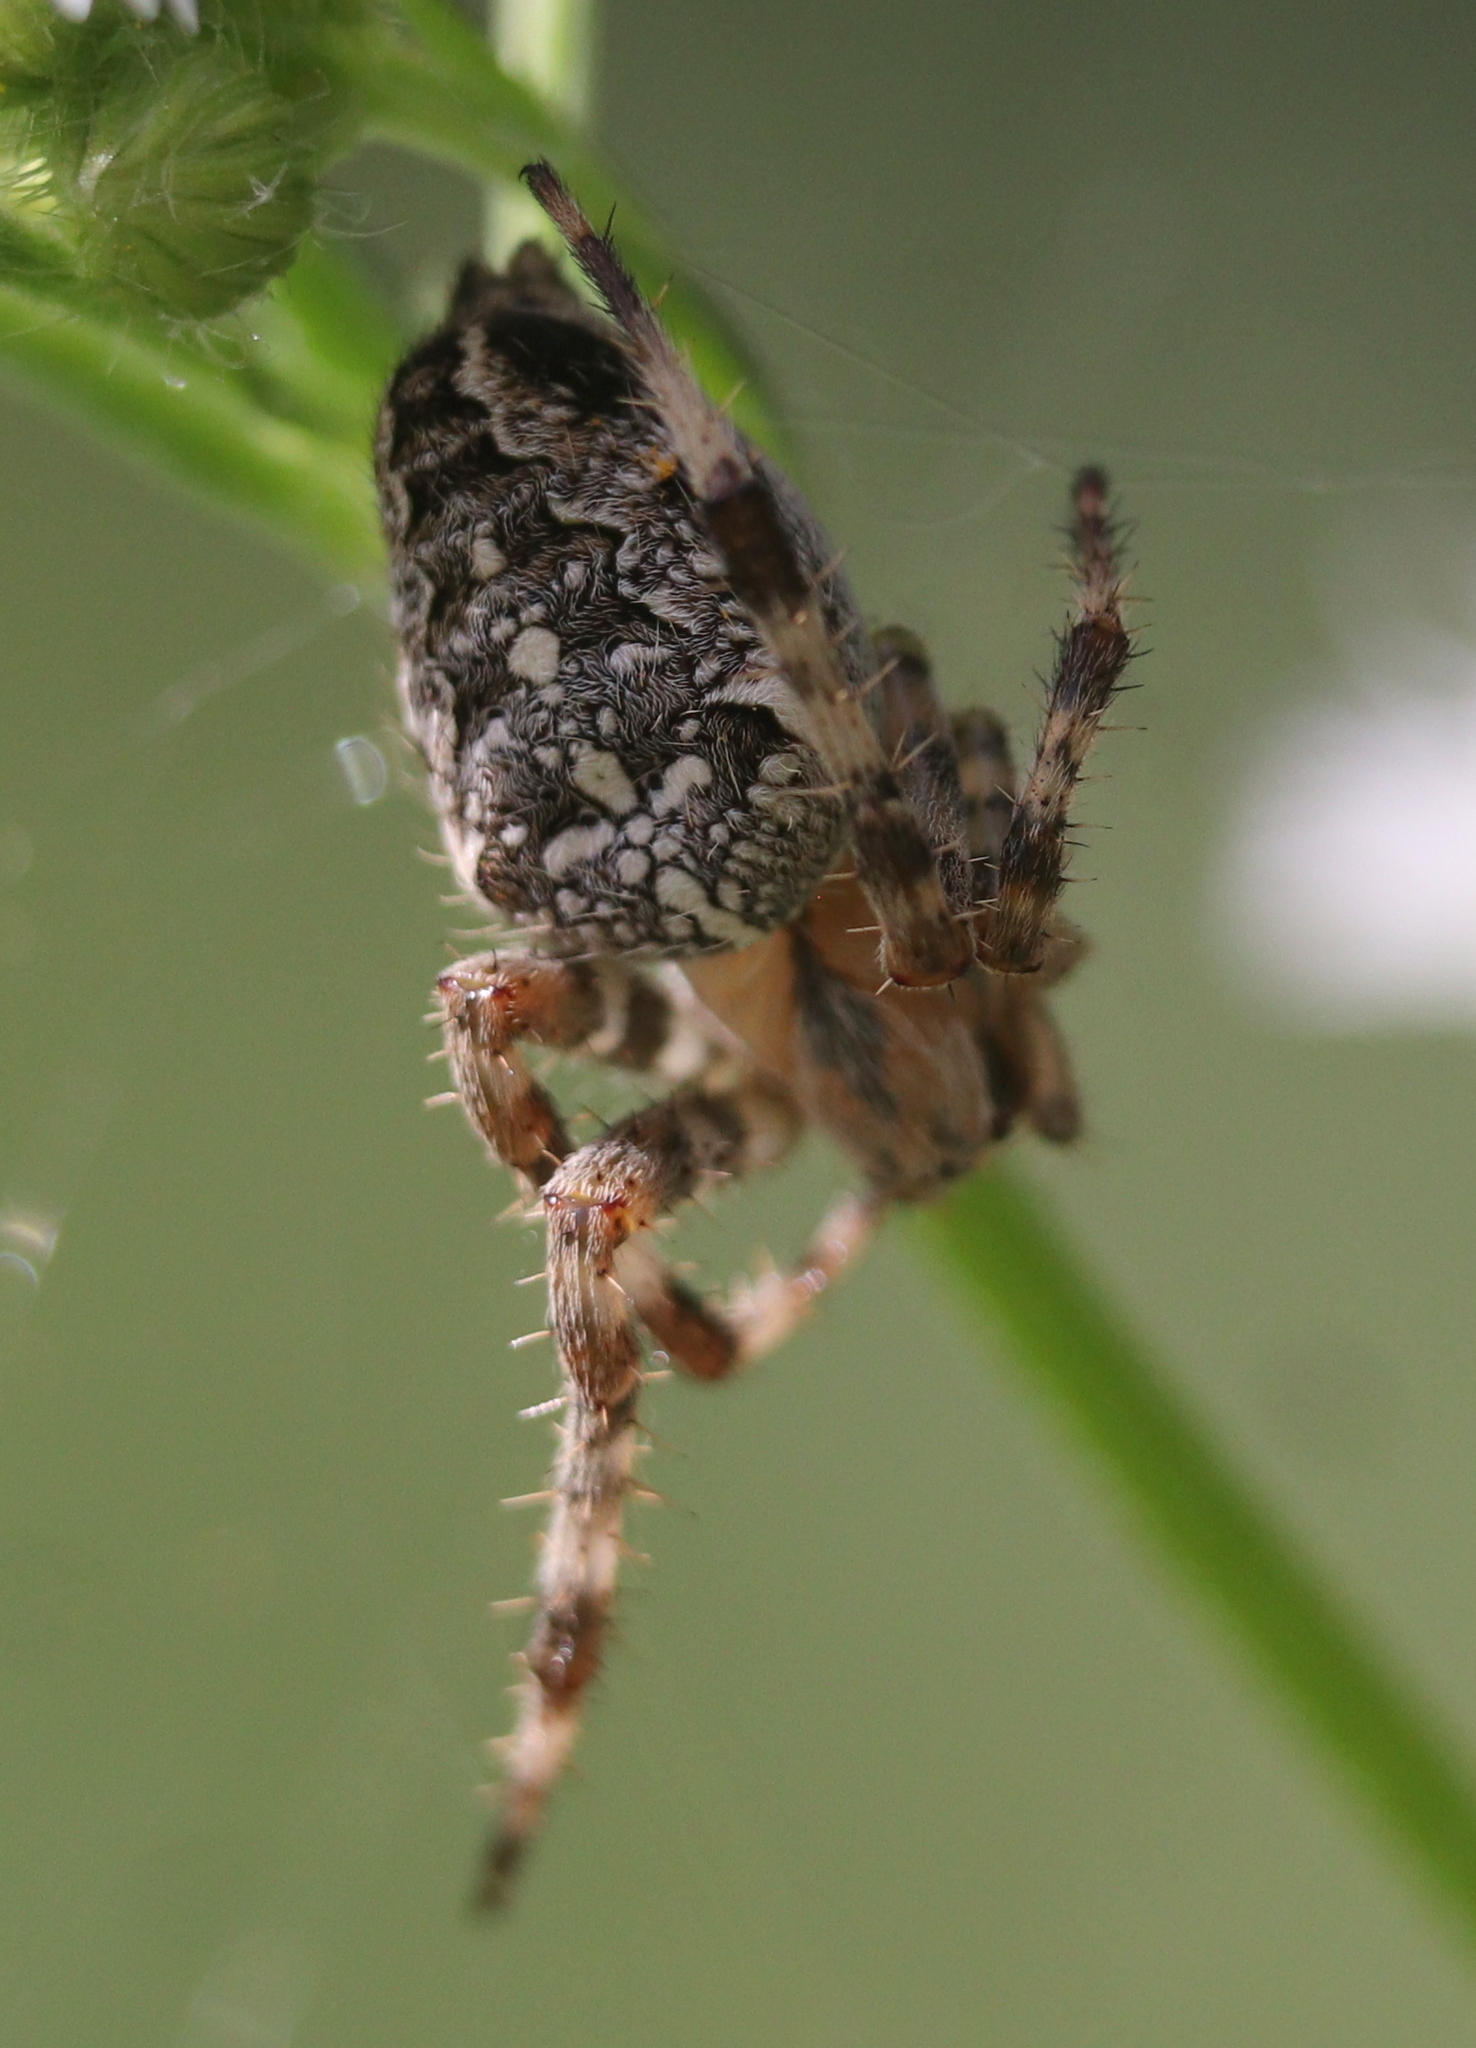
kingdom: Animalia
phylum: Arthropoda
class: Arachnida
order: Araneae
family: Araneidae
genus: Araneus
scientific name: Araneus diadematus
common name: Cross orbweaver
